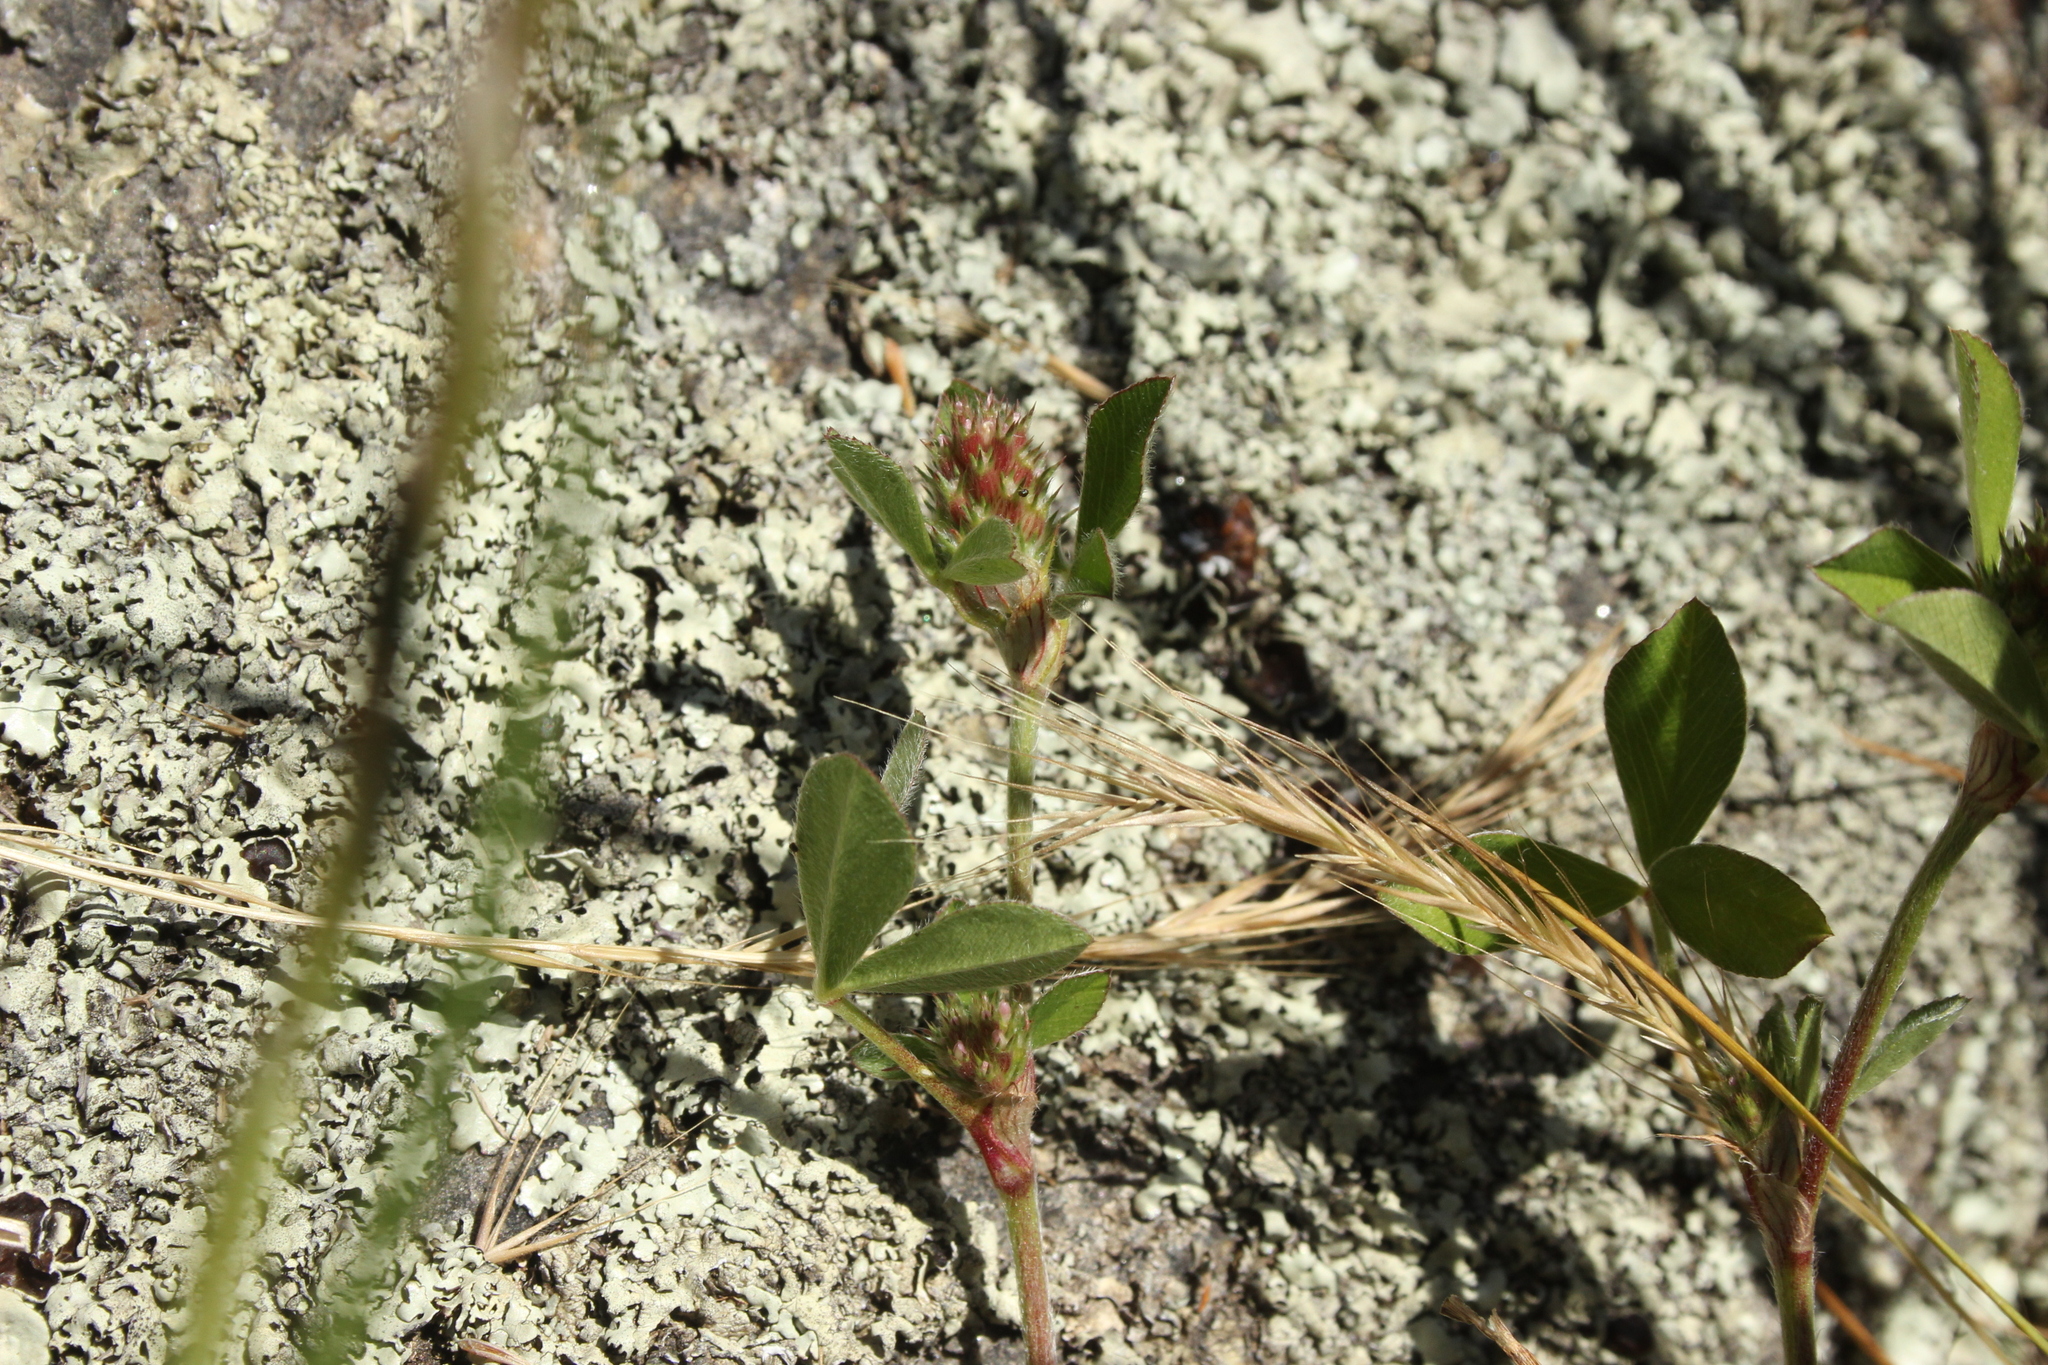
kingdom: Plantae
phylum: Tracheophyta
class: Magnoliopsida
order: Fabales
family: Fabaceae
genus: Trifolium
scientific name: Trifolium striatum
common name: Knotted clover
